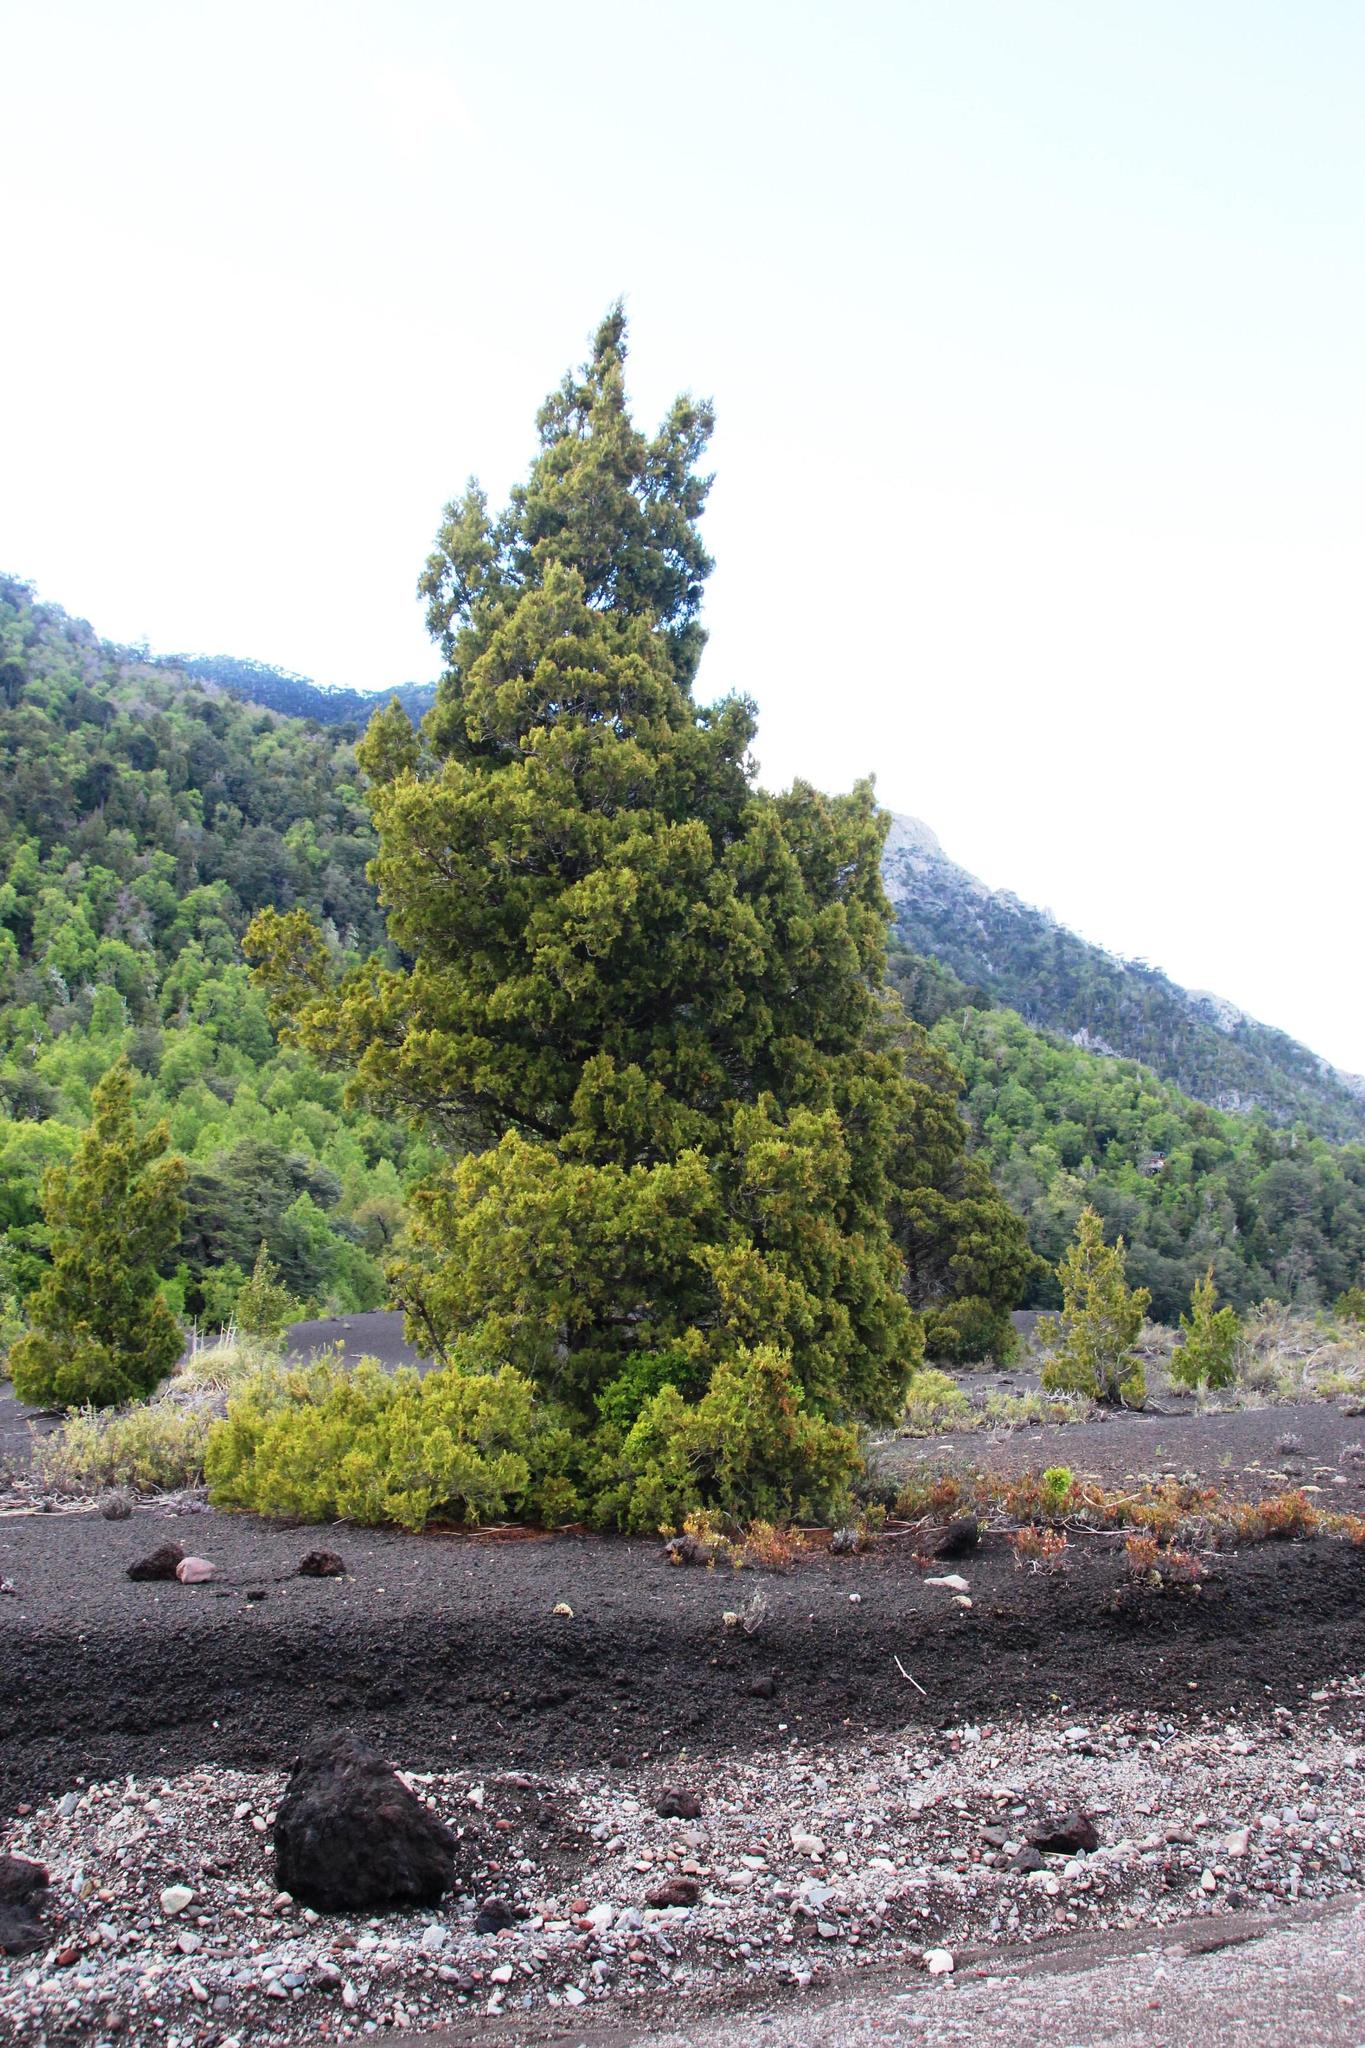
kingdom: Plantae
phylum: Tracheophyta
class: Pinopsida
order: Pinales
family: Cupressaceae
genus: Austrocedrus
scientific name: Austrocedrus chilensis
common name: Chilean incense-cedar
